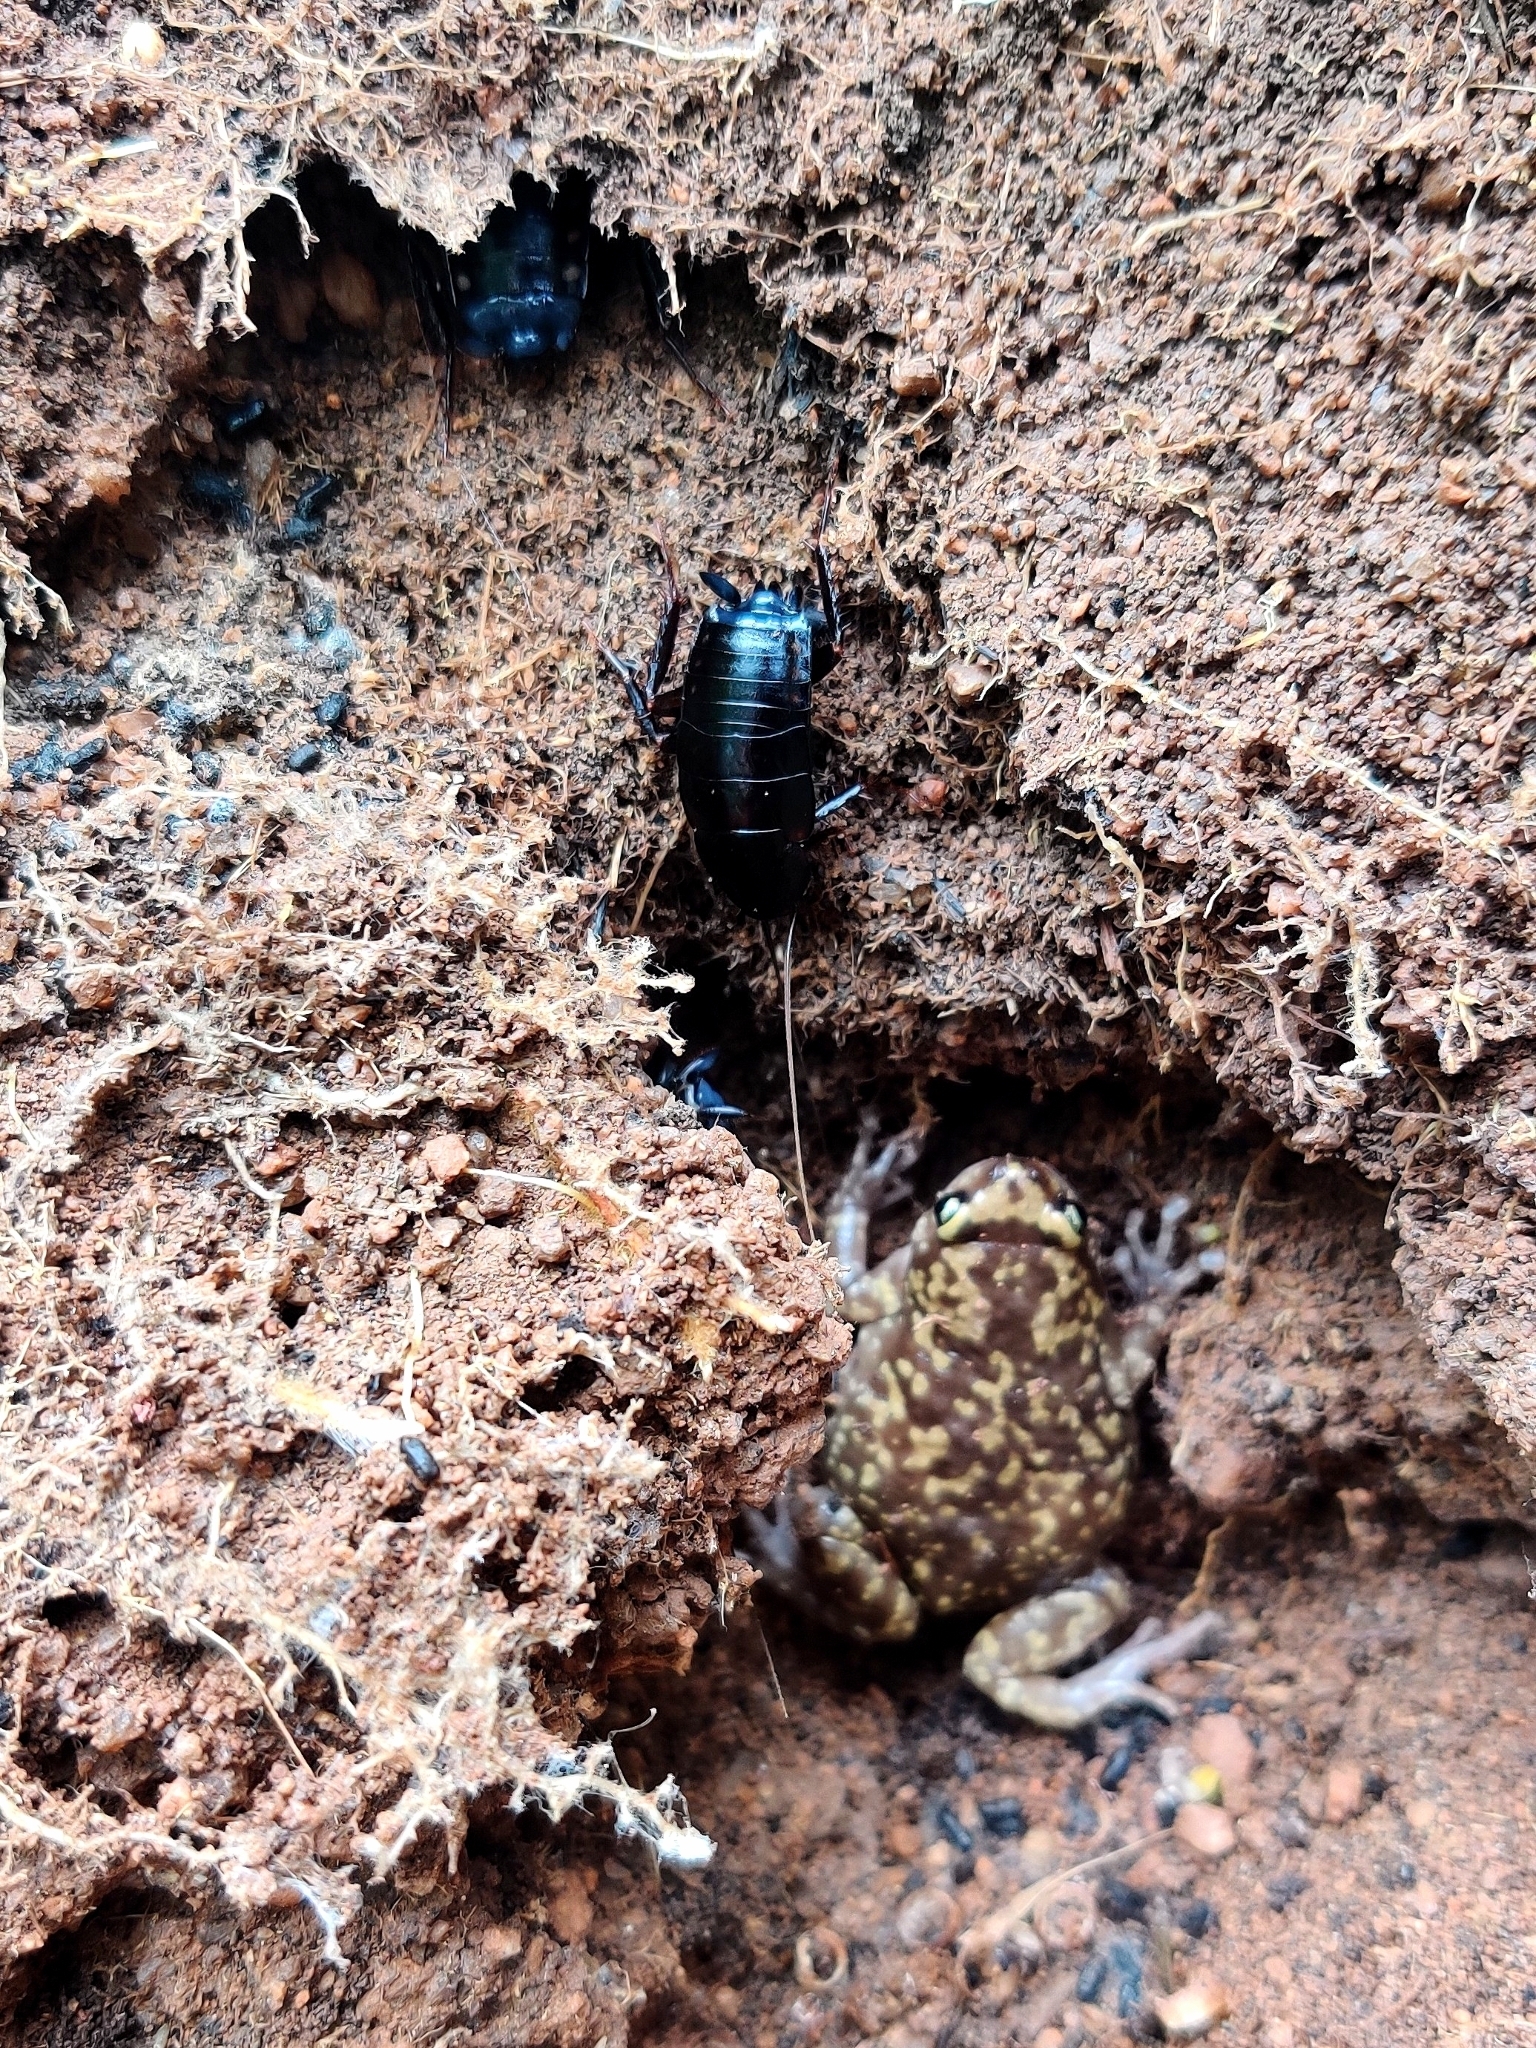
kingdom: Animalia
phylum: Chordata
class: Amphibia
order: Anura
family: Microhylidae
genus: Uperodon
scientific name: Uperodon variegatus
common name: Eluru dot frog
